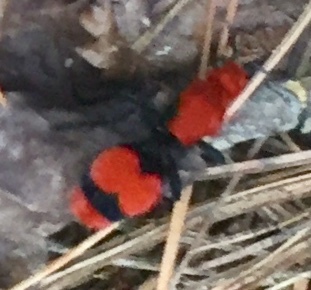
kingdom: Animalia
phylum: Arthropoda
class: Insecta
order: Hymenoptera
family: Mutillidae
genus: Dasymutilla
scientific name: Dasymutilla occidentalis
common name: Common eastern velvet ant
